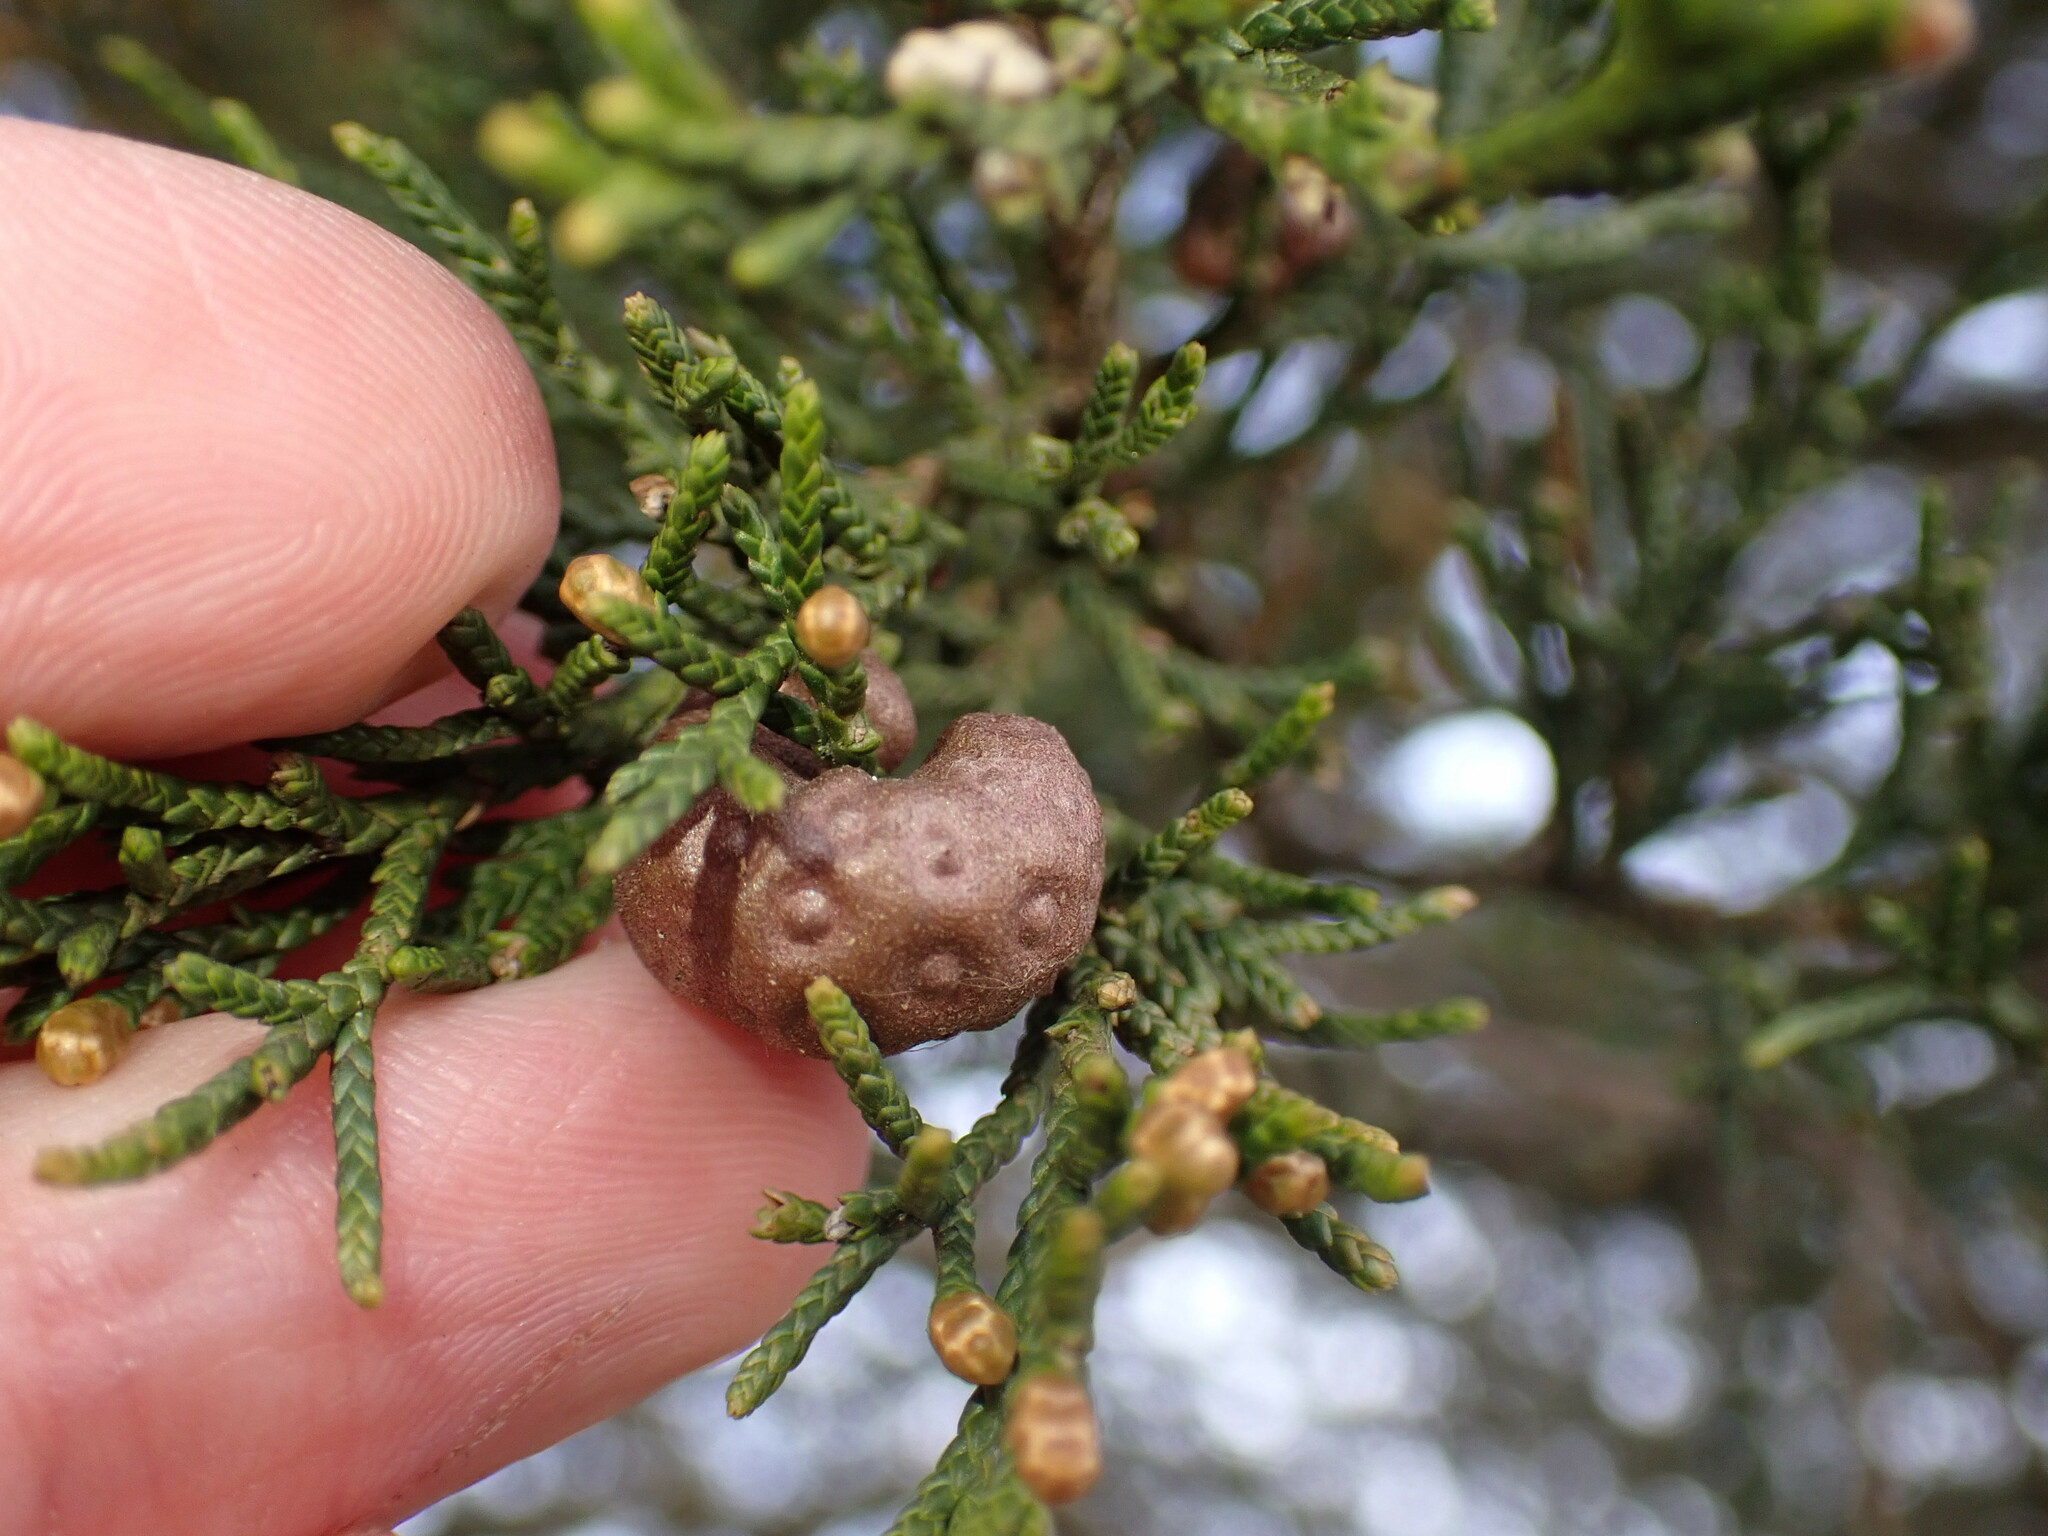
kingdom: Fungi
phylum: Basidiomycota
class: Pucciniomycetes
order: Pucciniales
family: Gymnosporangiaceae
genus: Gymnosporangium
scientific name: Gymnosporangium juniperi-virginianae
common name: Juniper-apple rust
